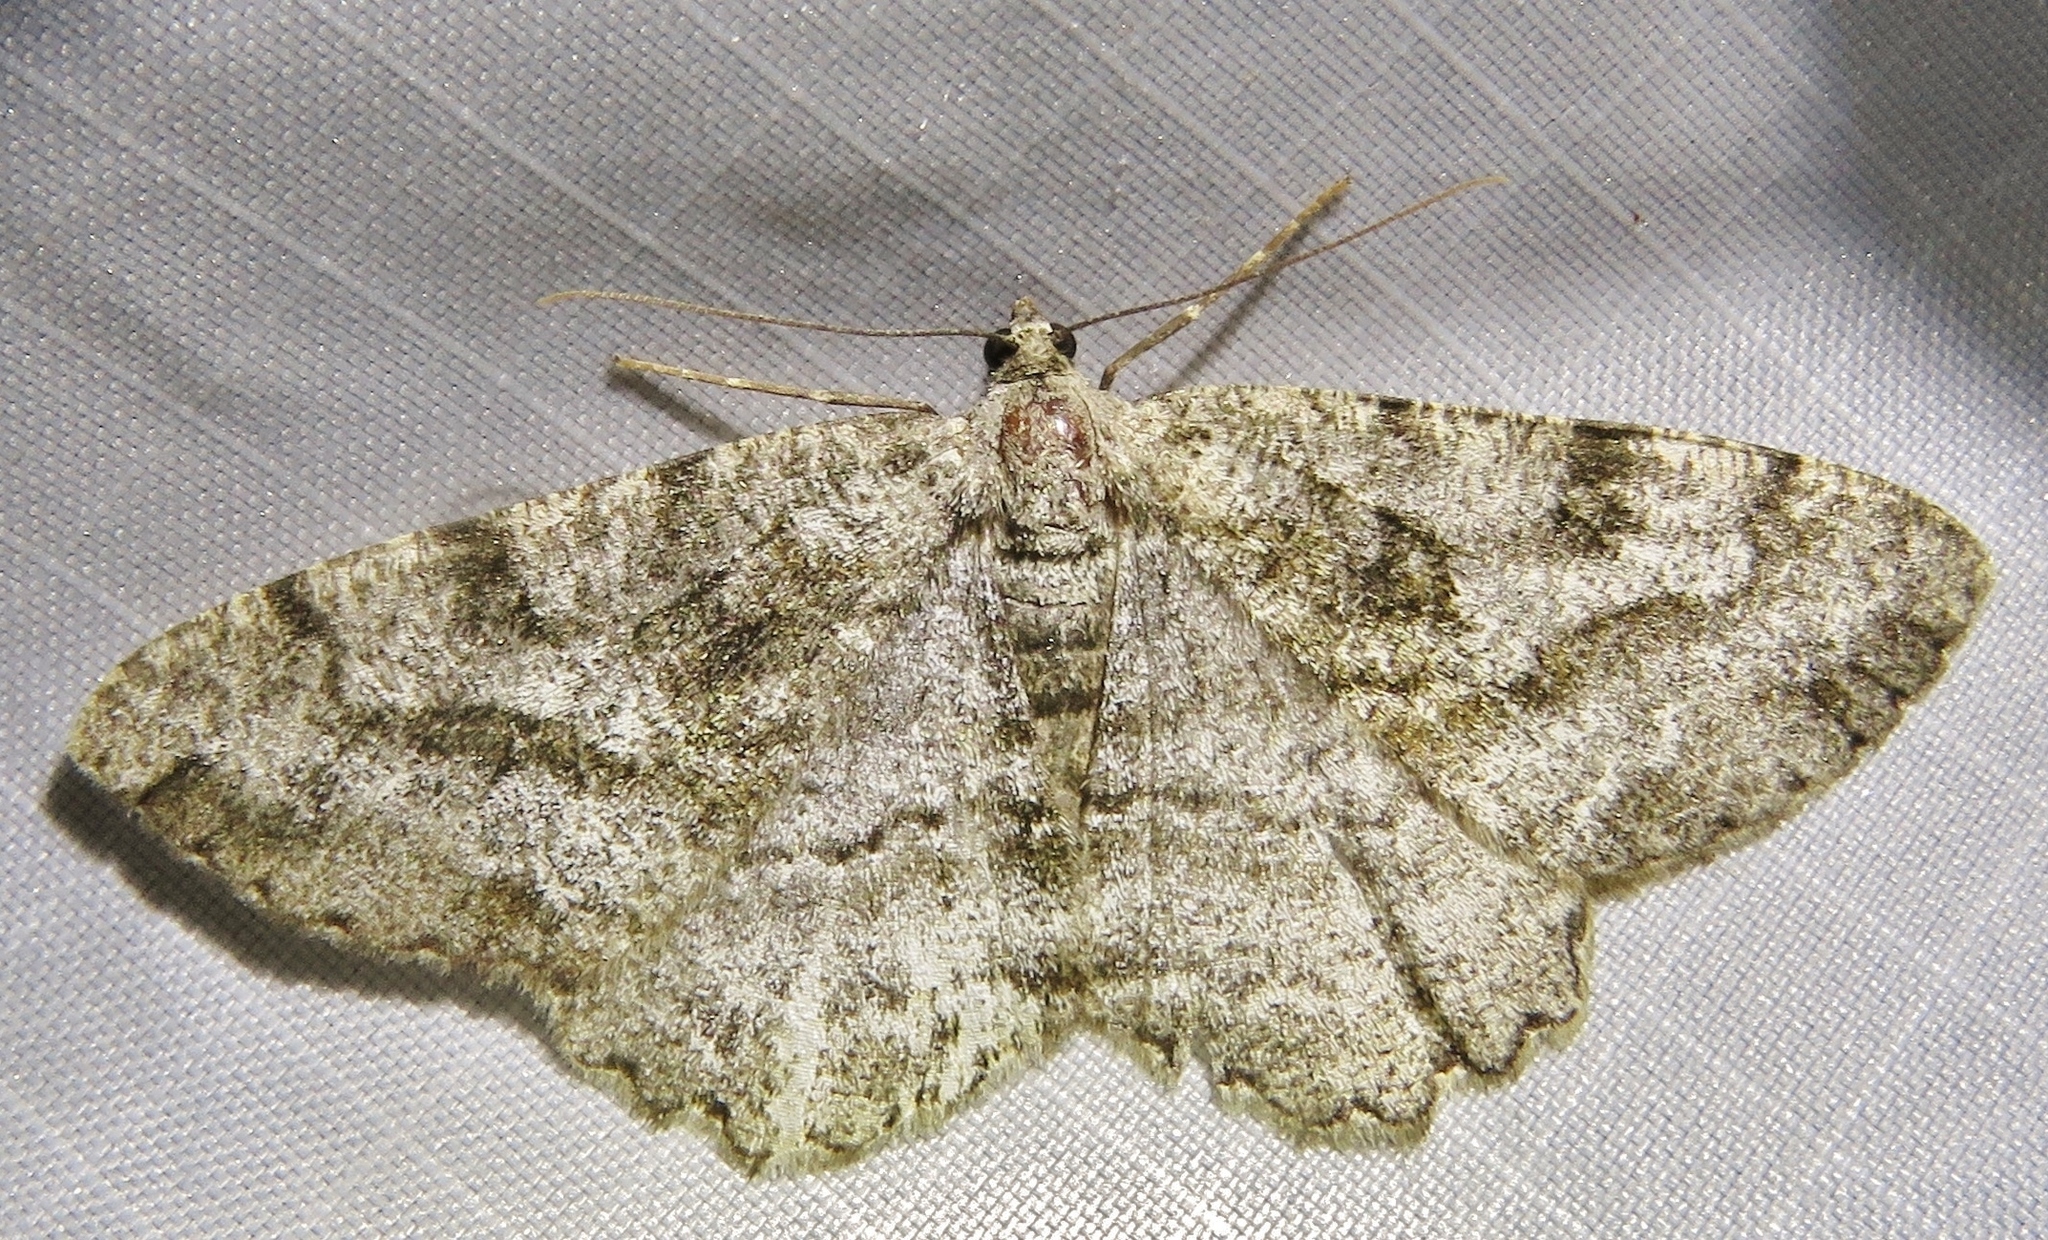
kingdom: Animalia
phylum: Arthropoda
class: Insecta
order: Lepidoptera
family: Geometridae
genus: Alcis
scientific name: Alcis repandata
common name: Mottled beauty
